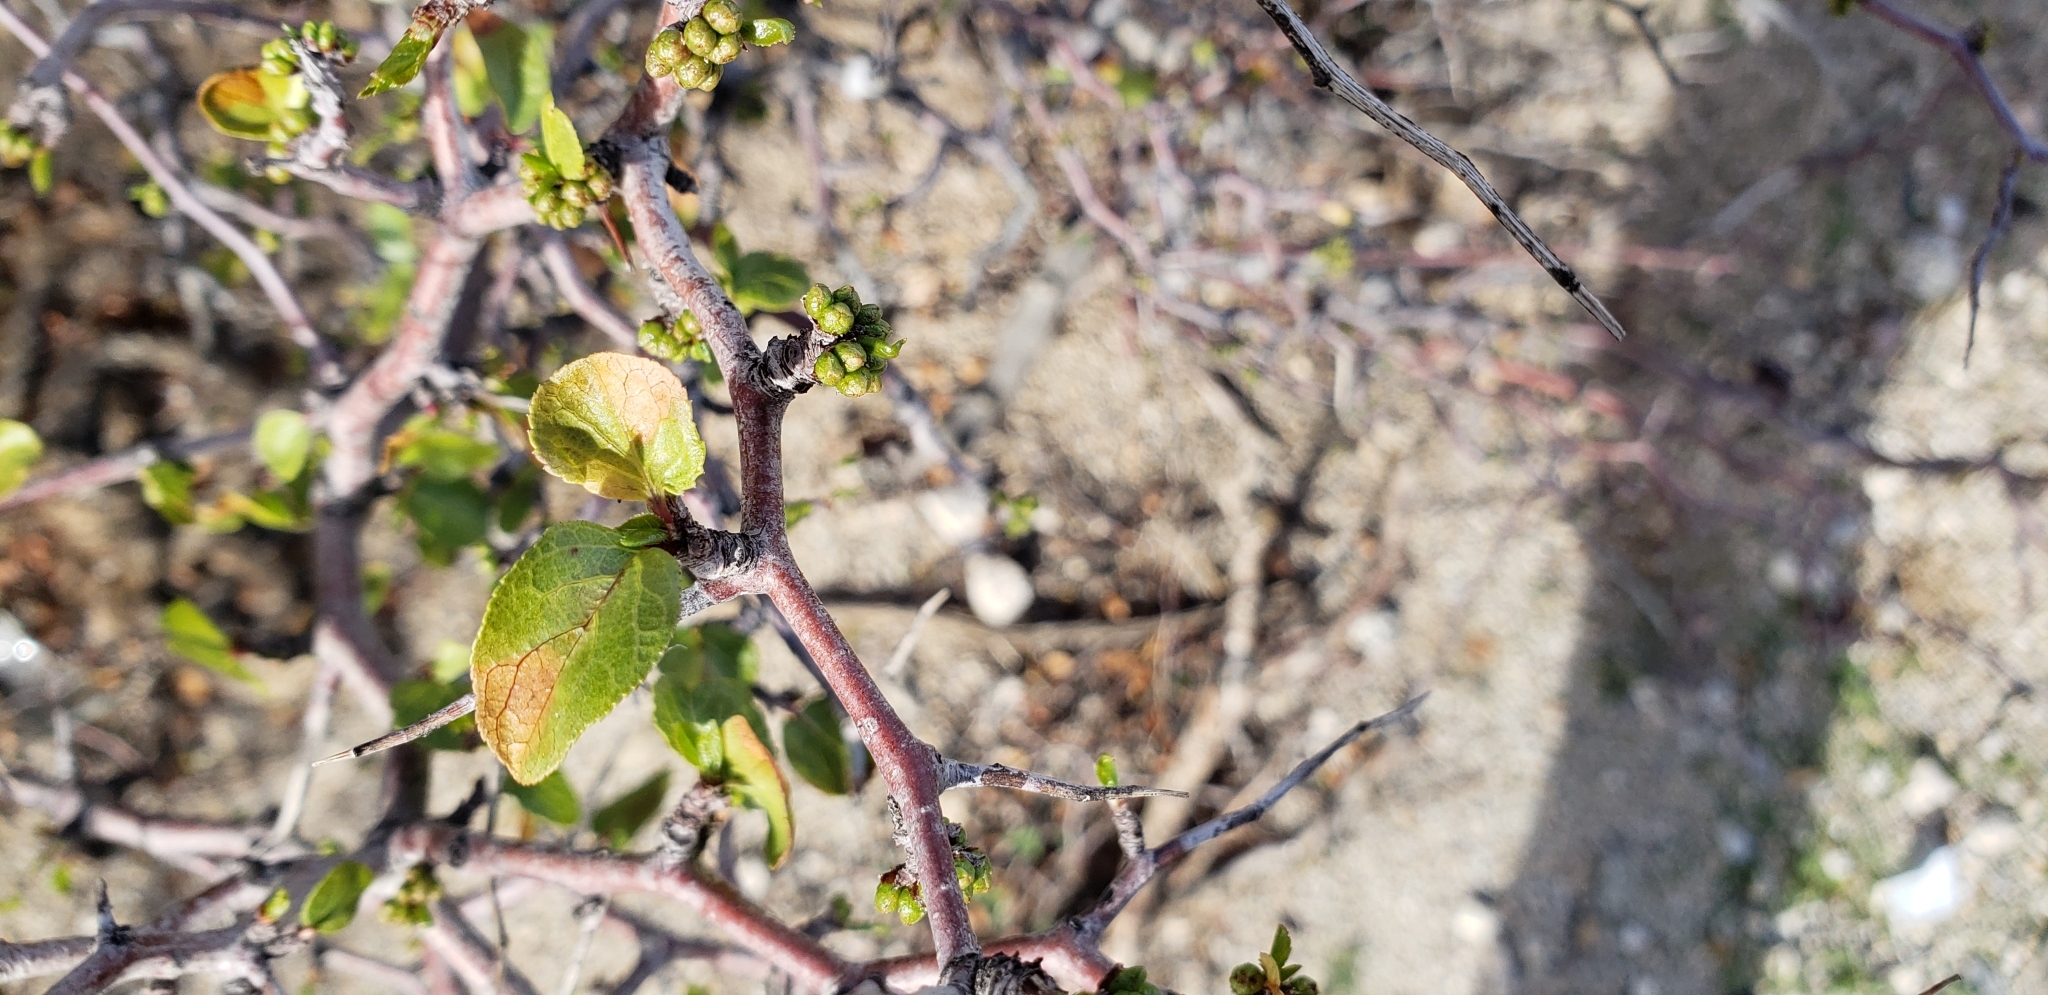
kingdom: Plantae
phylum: Tracheophyta
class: Magnoliopsida
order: Rosales
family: Rosaceae
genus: Prunus
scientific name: Prunus fremontii
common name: Desert apricot
